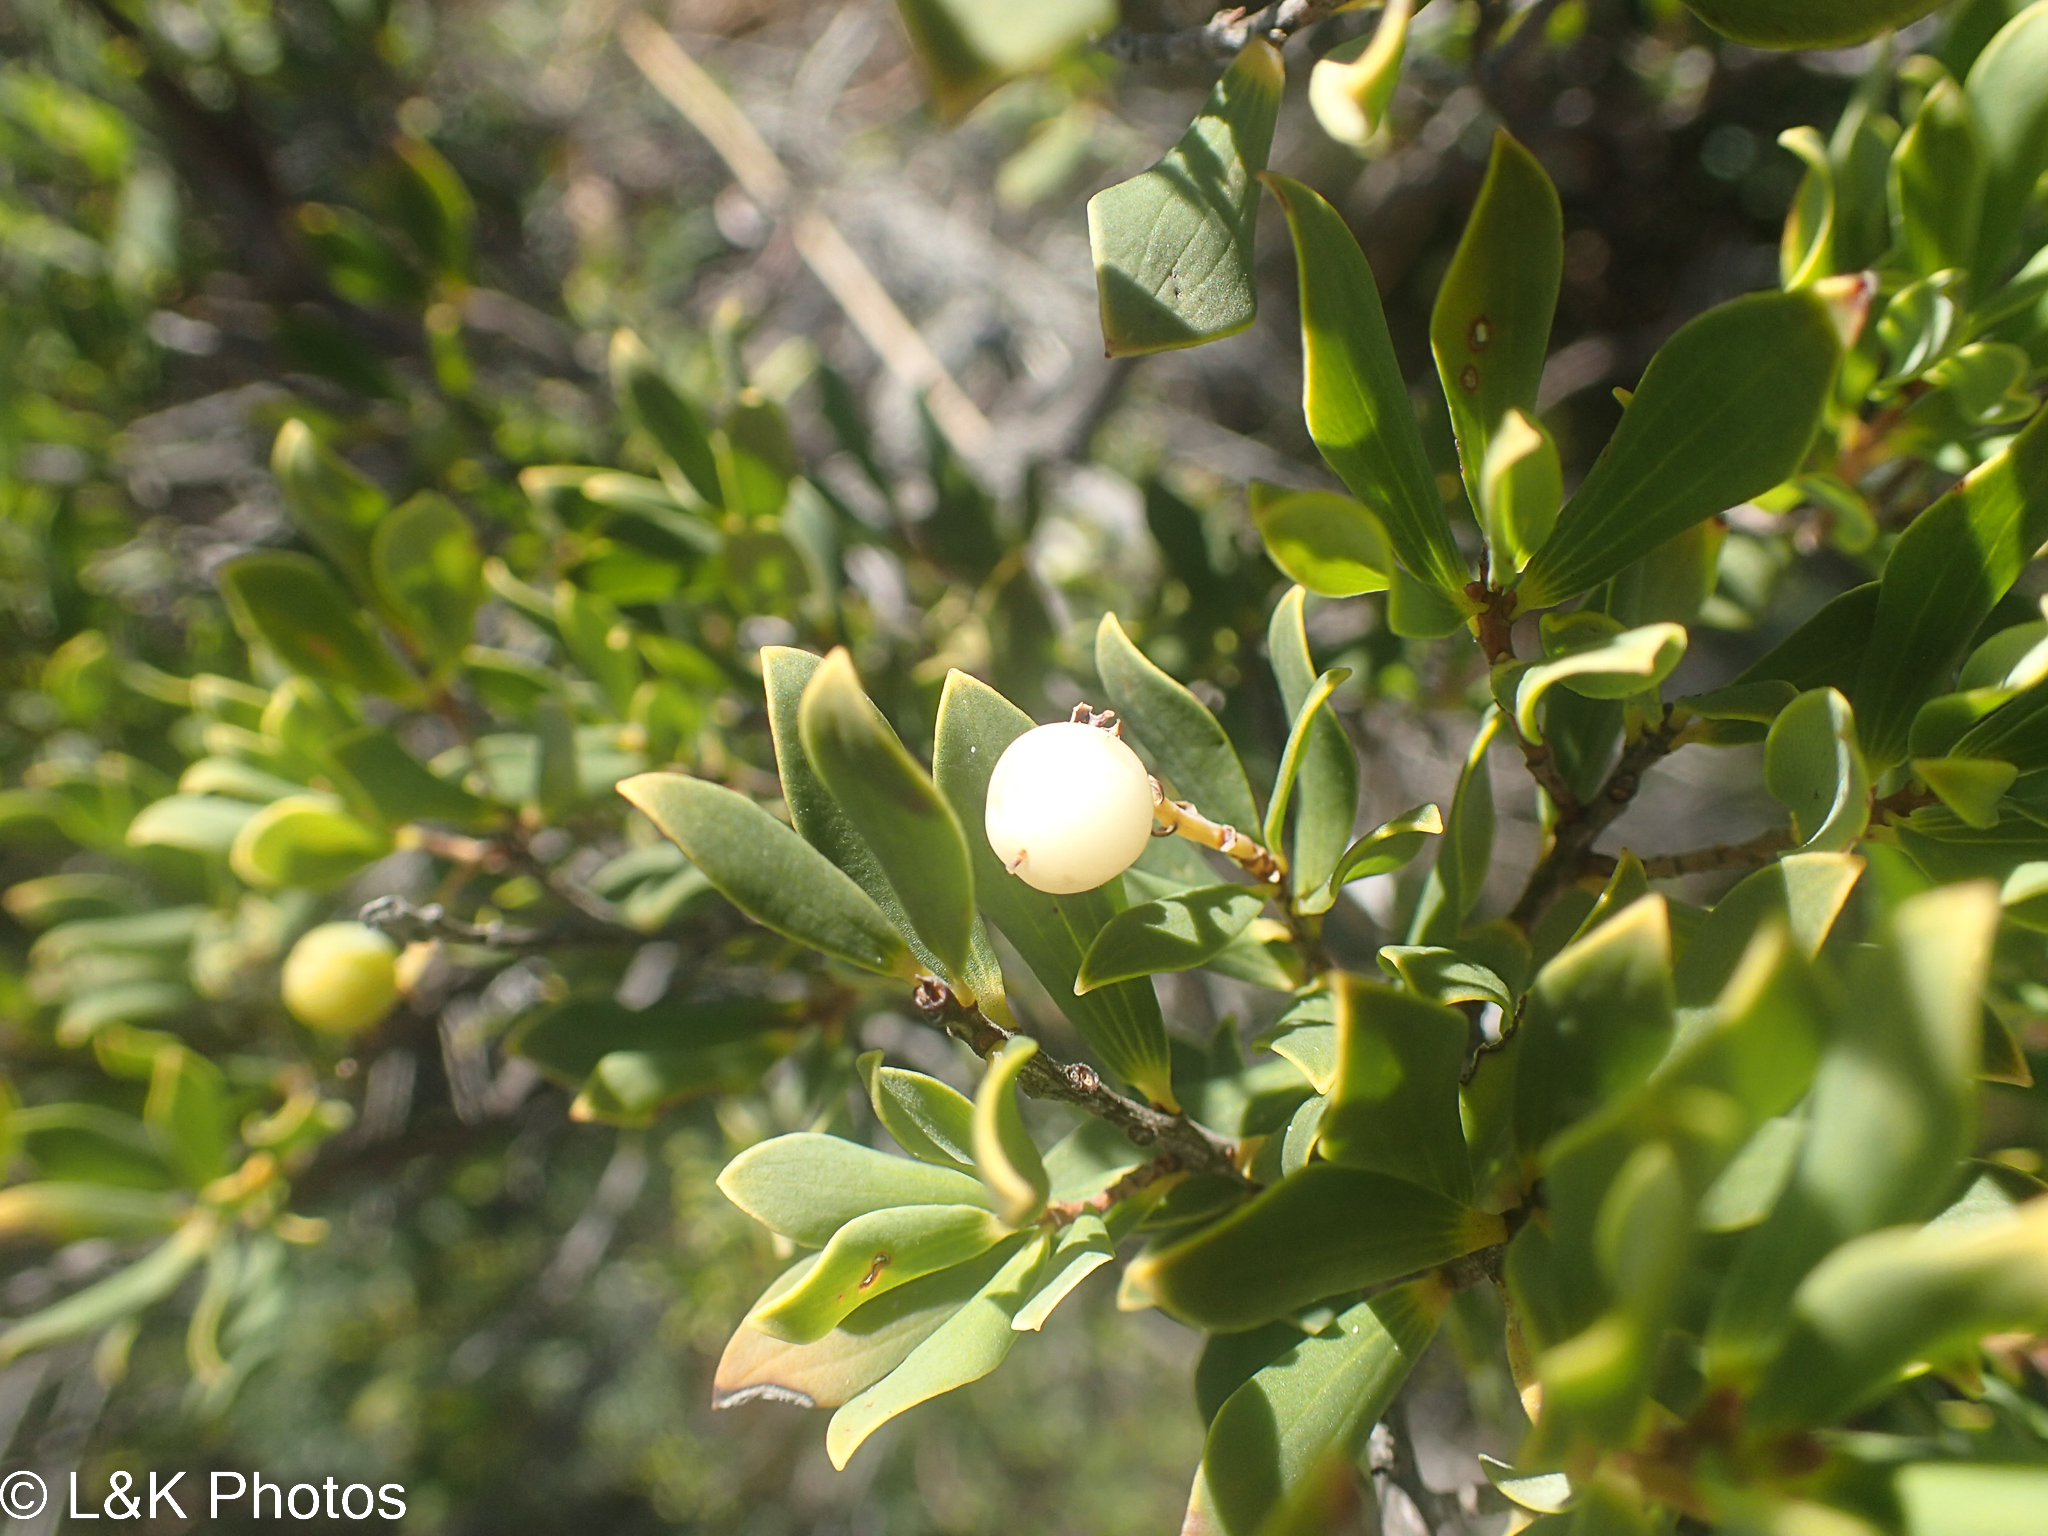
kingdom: Plantae
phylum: Tracheophyta
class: Magnoliopsida
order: Ericales
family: Ericaceae
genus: Leptecophylla
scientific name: Leptecophylla parvifolia
